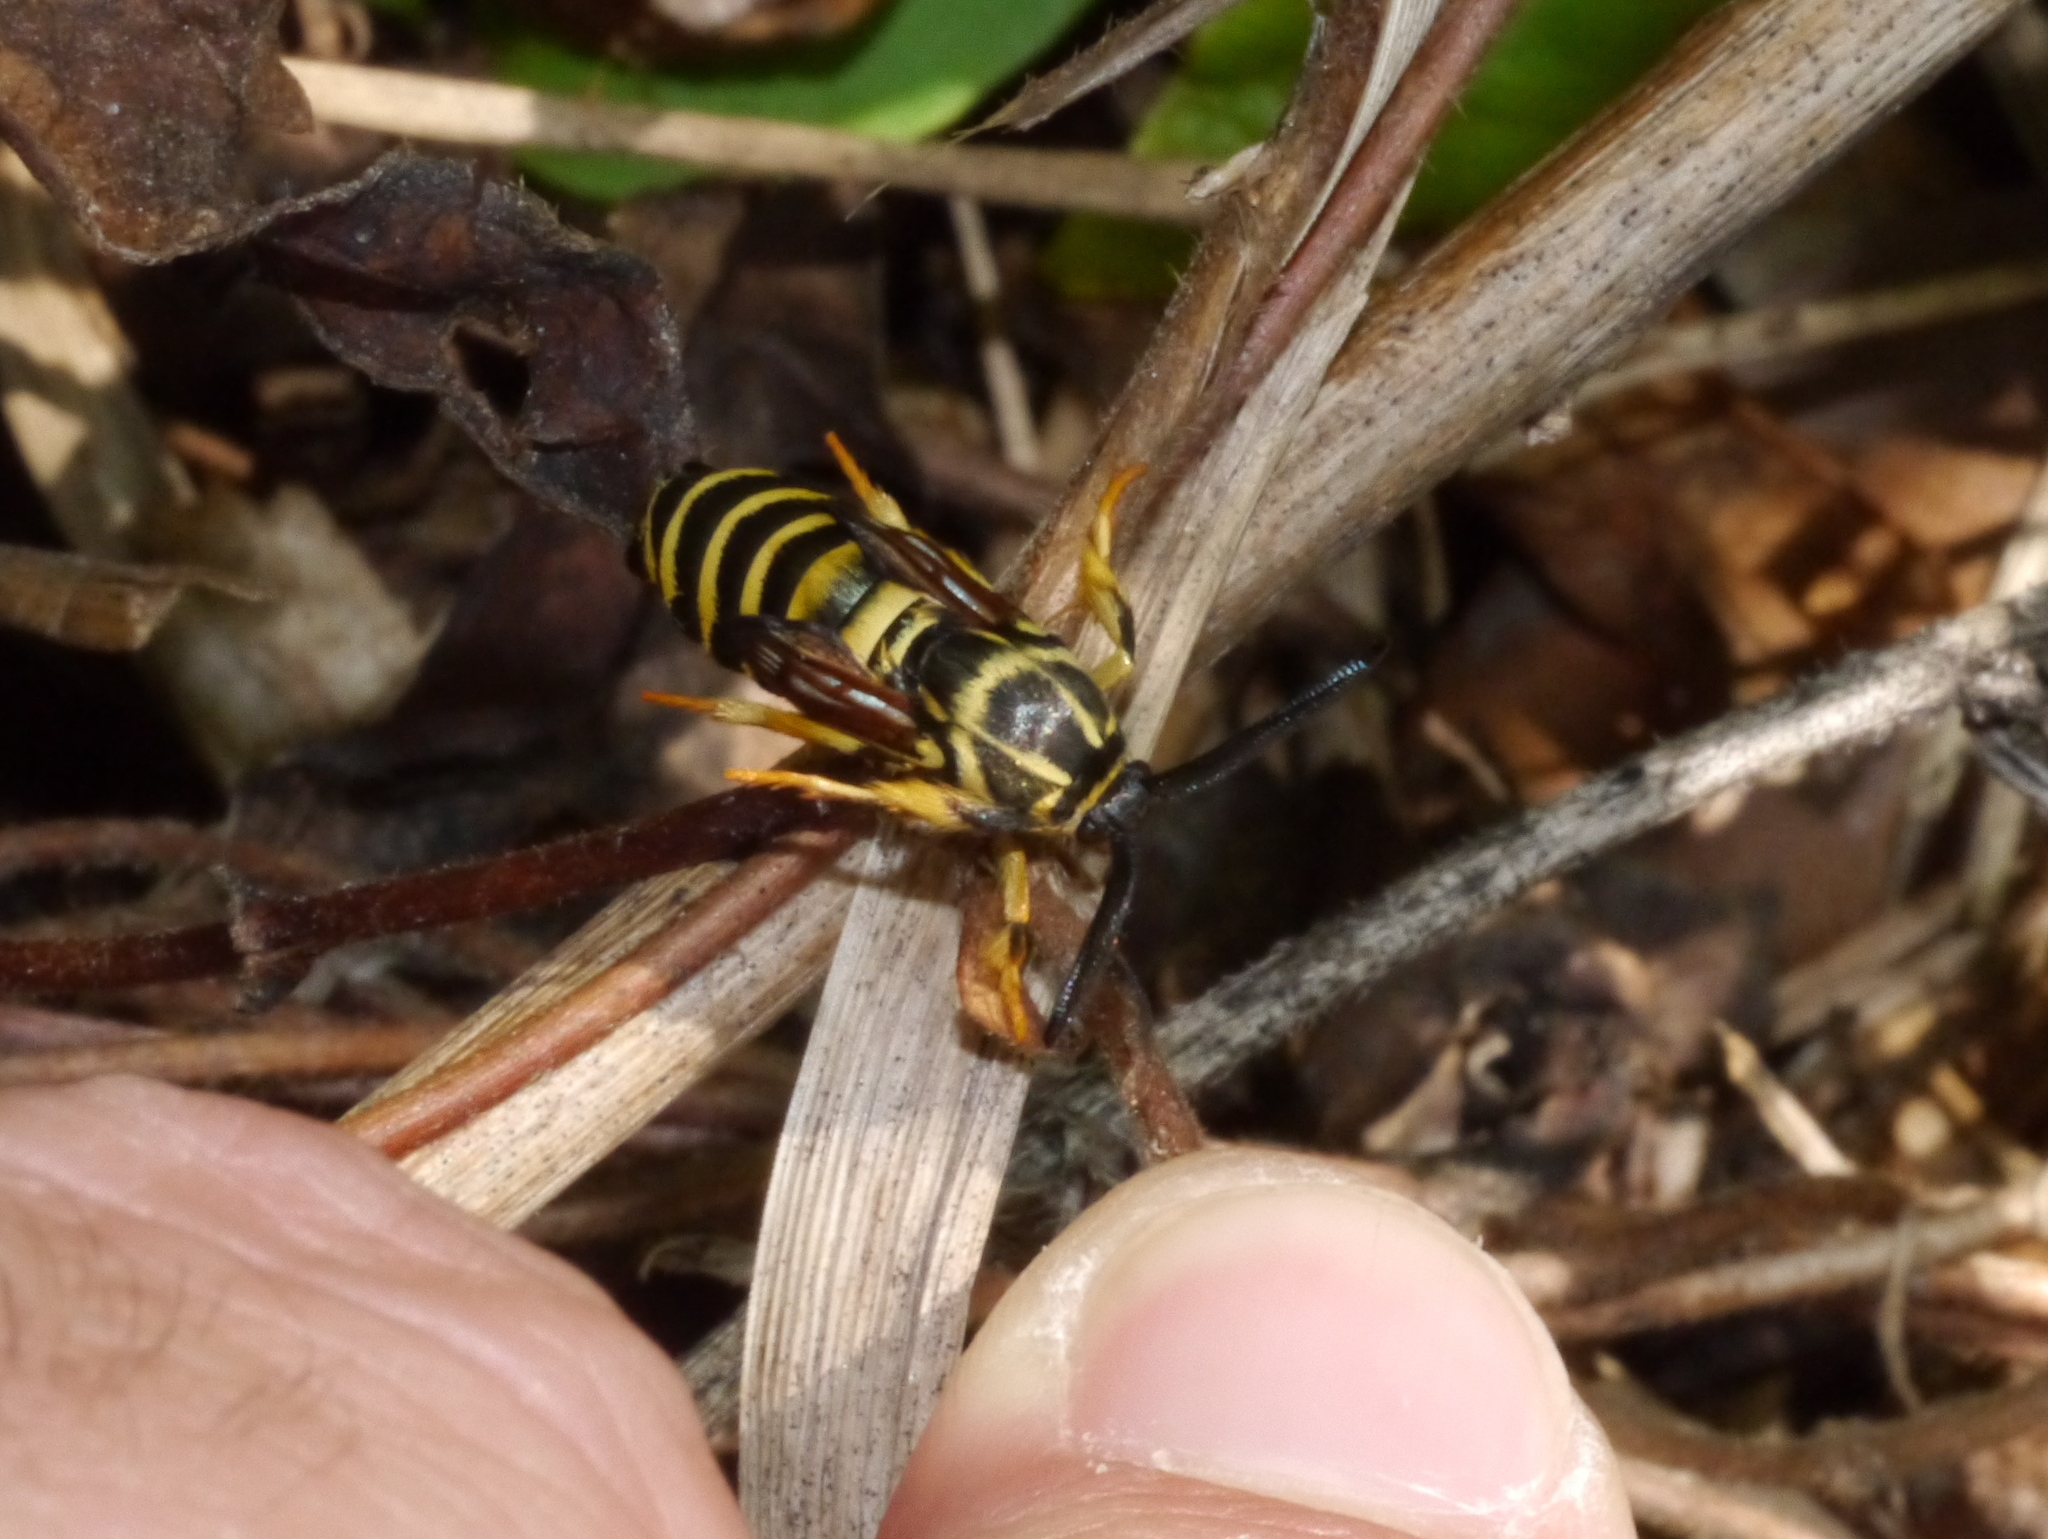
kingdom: Animalia
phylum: Arthropoda
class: Insecta
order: Lepidoptera
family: Sesiidae
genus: Pennisetia
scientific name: Pennisetia marginatum
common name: Raspberry crown borer
